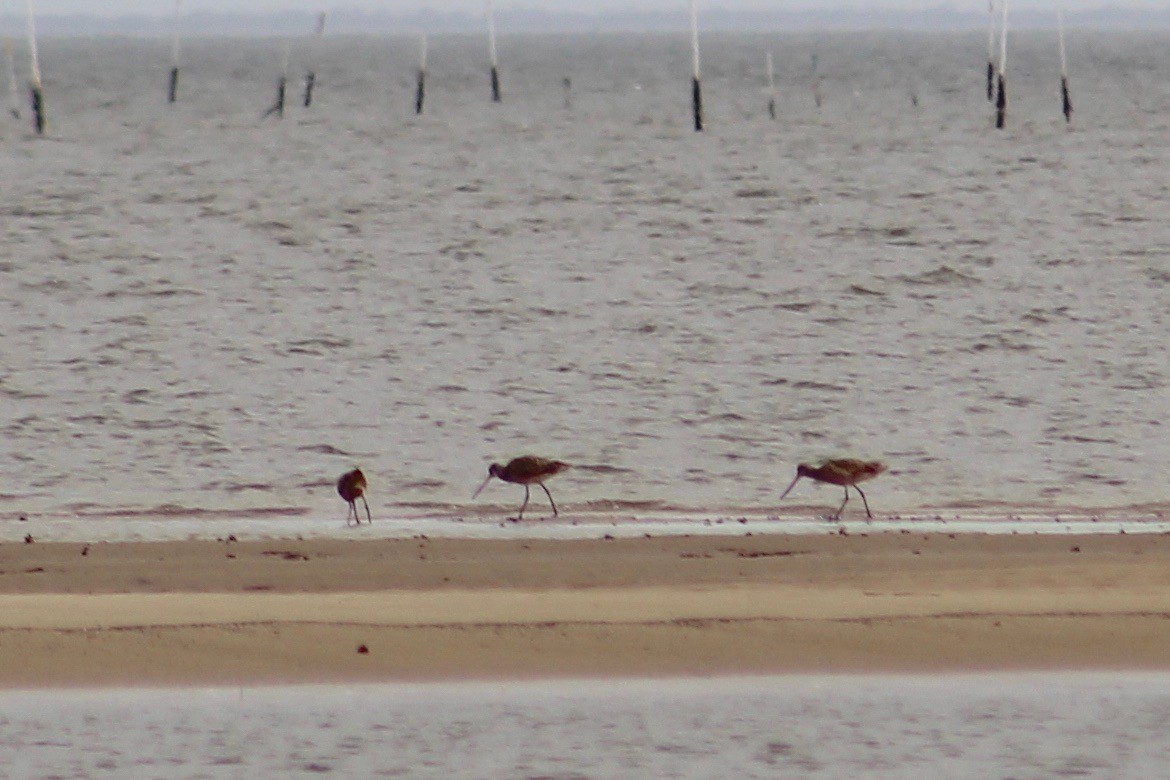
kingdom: Animalia
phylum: Chordata
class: Aves
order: Charadriiformes
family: Scolopacidae
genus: Limosa
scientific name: Limosa fedoa
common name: Marbled godwit
